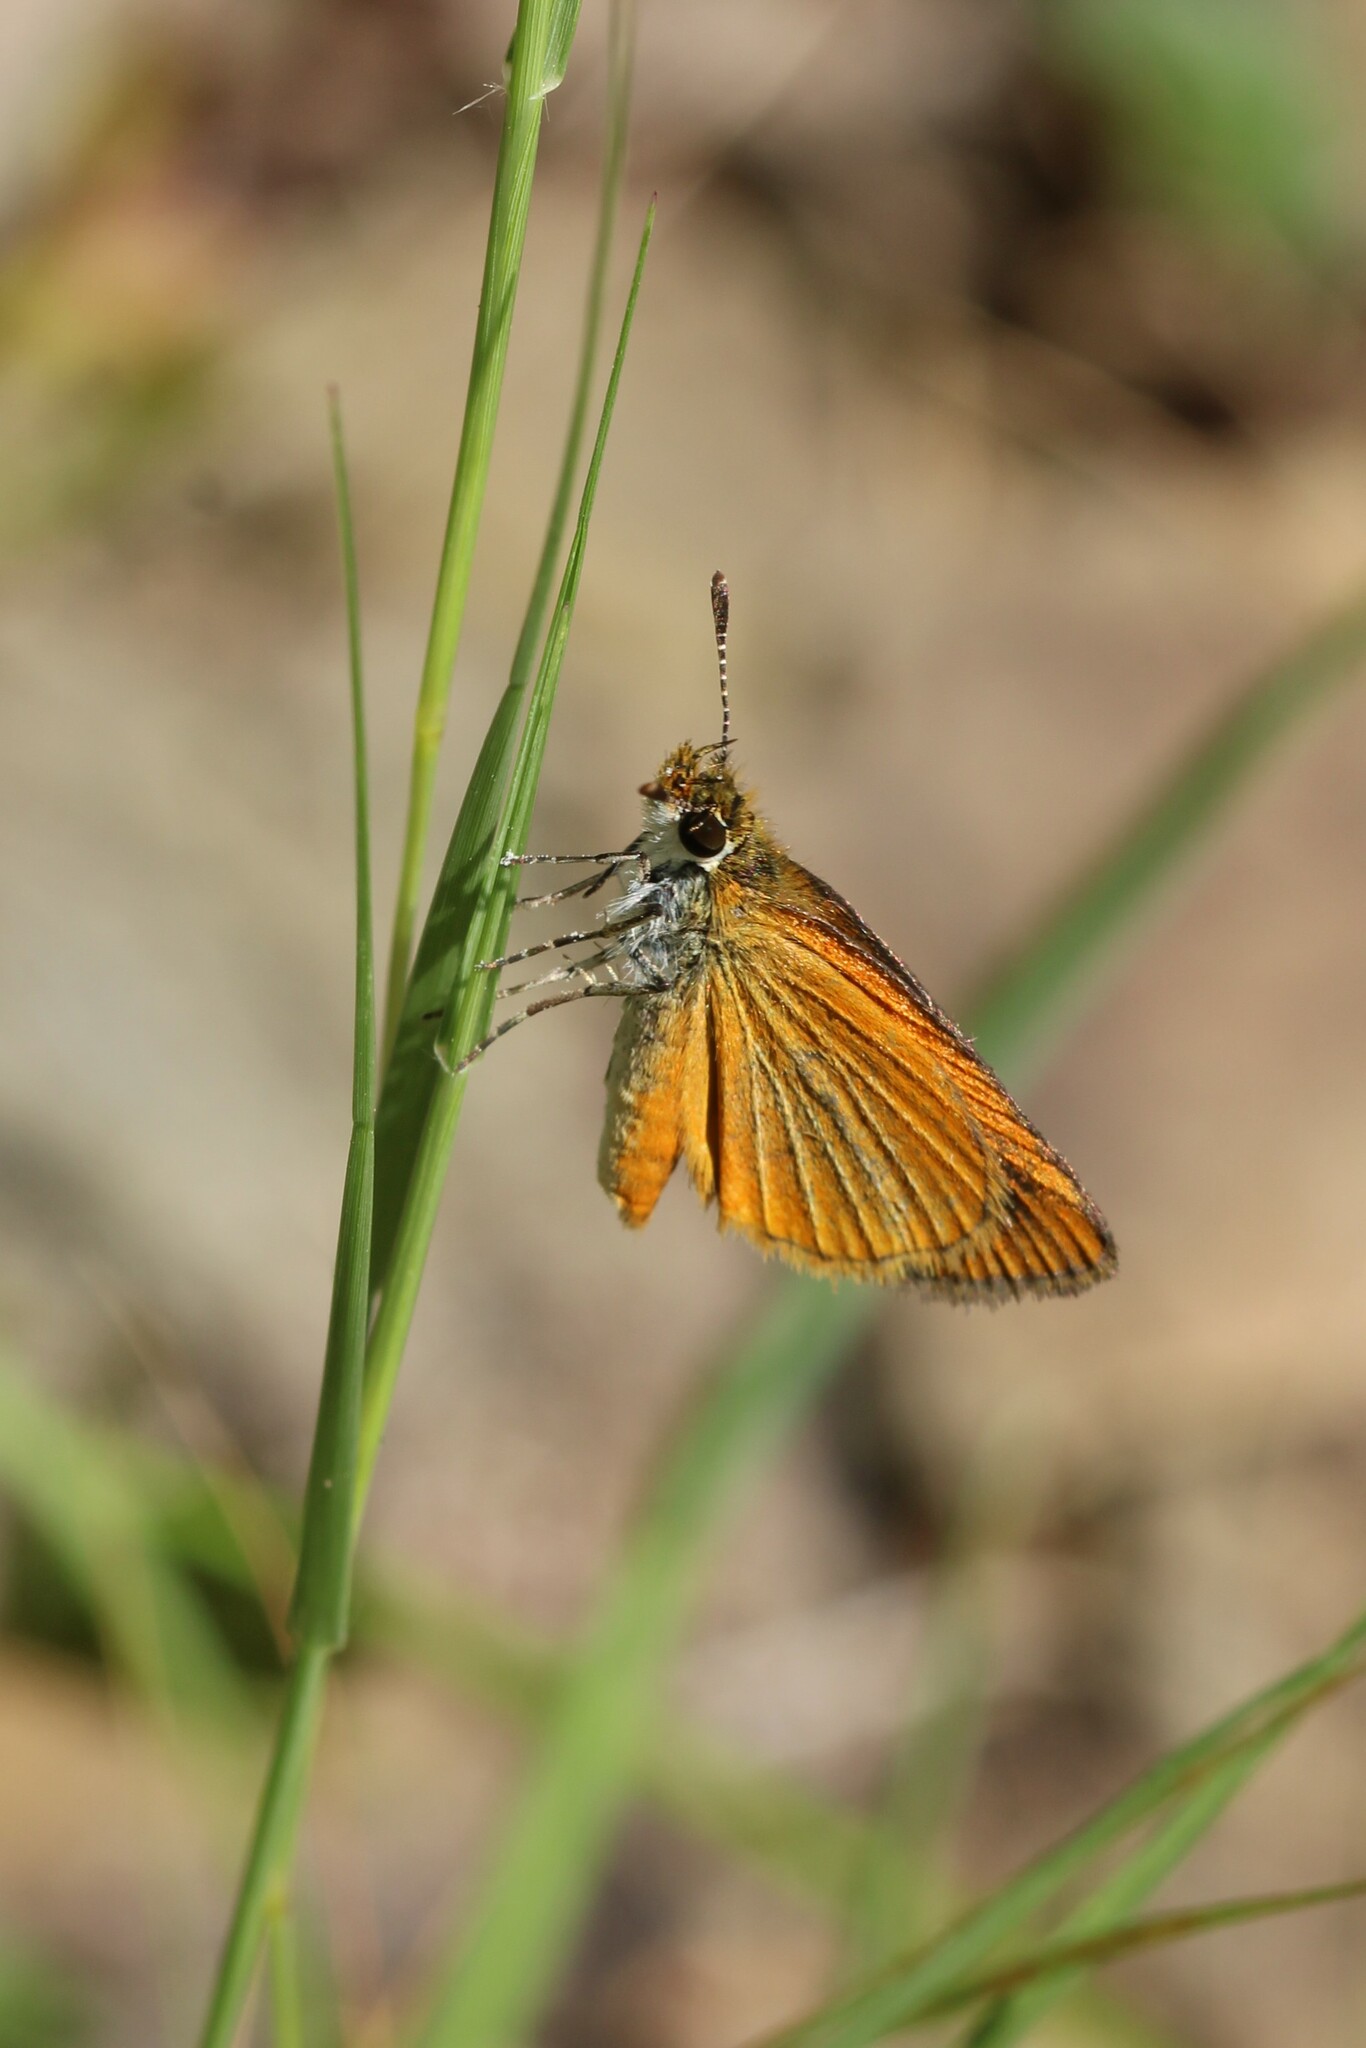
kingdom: Animalia
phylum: Arthropoda
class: Insecta
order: Lepidoptera
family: Hesperiidae
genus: Ancyloxypha
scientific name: Ancyloxypha numitor
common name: Least skipper
